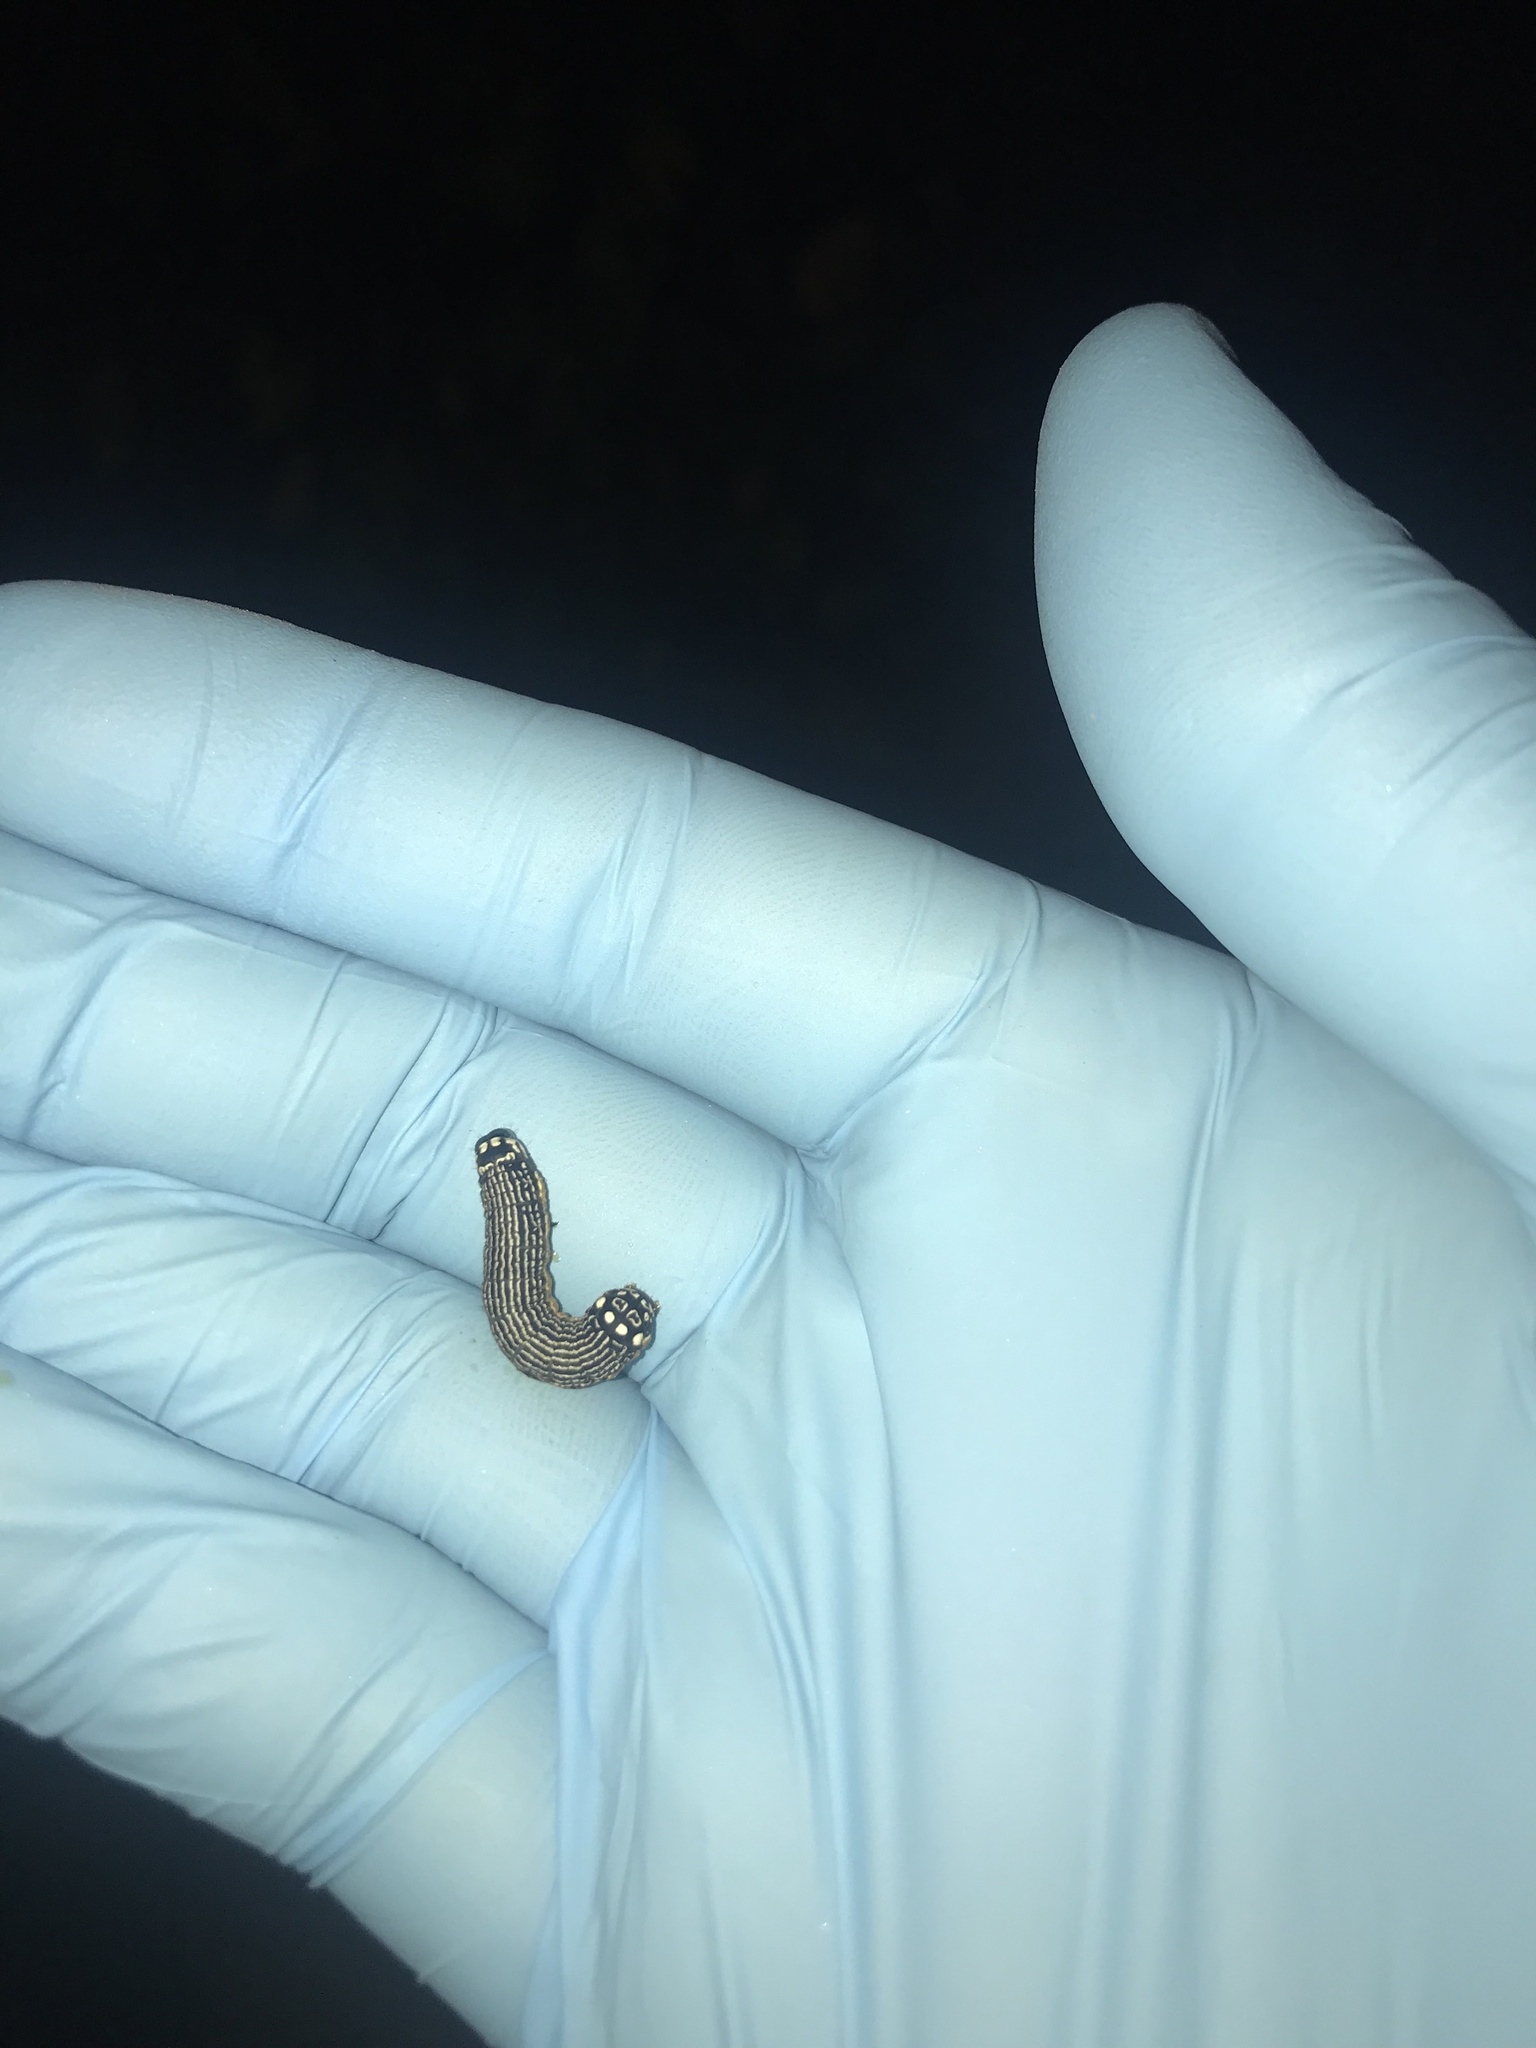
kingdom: Animalia
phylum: Arthropoda
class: Insecta
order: Lepidoptera
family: Noctuidae
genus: Phosphila
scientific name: Phosphila turbulenta
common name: Turbulent phosphila moth
